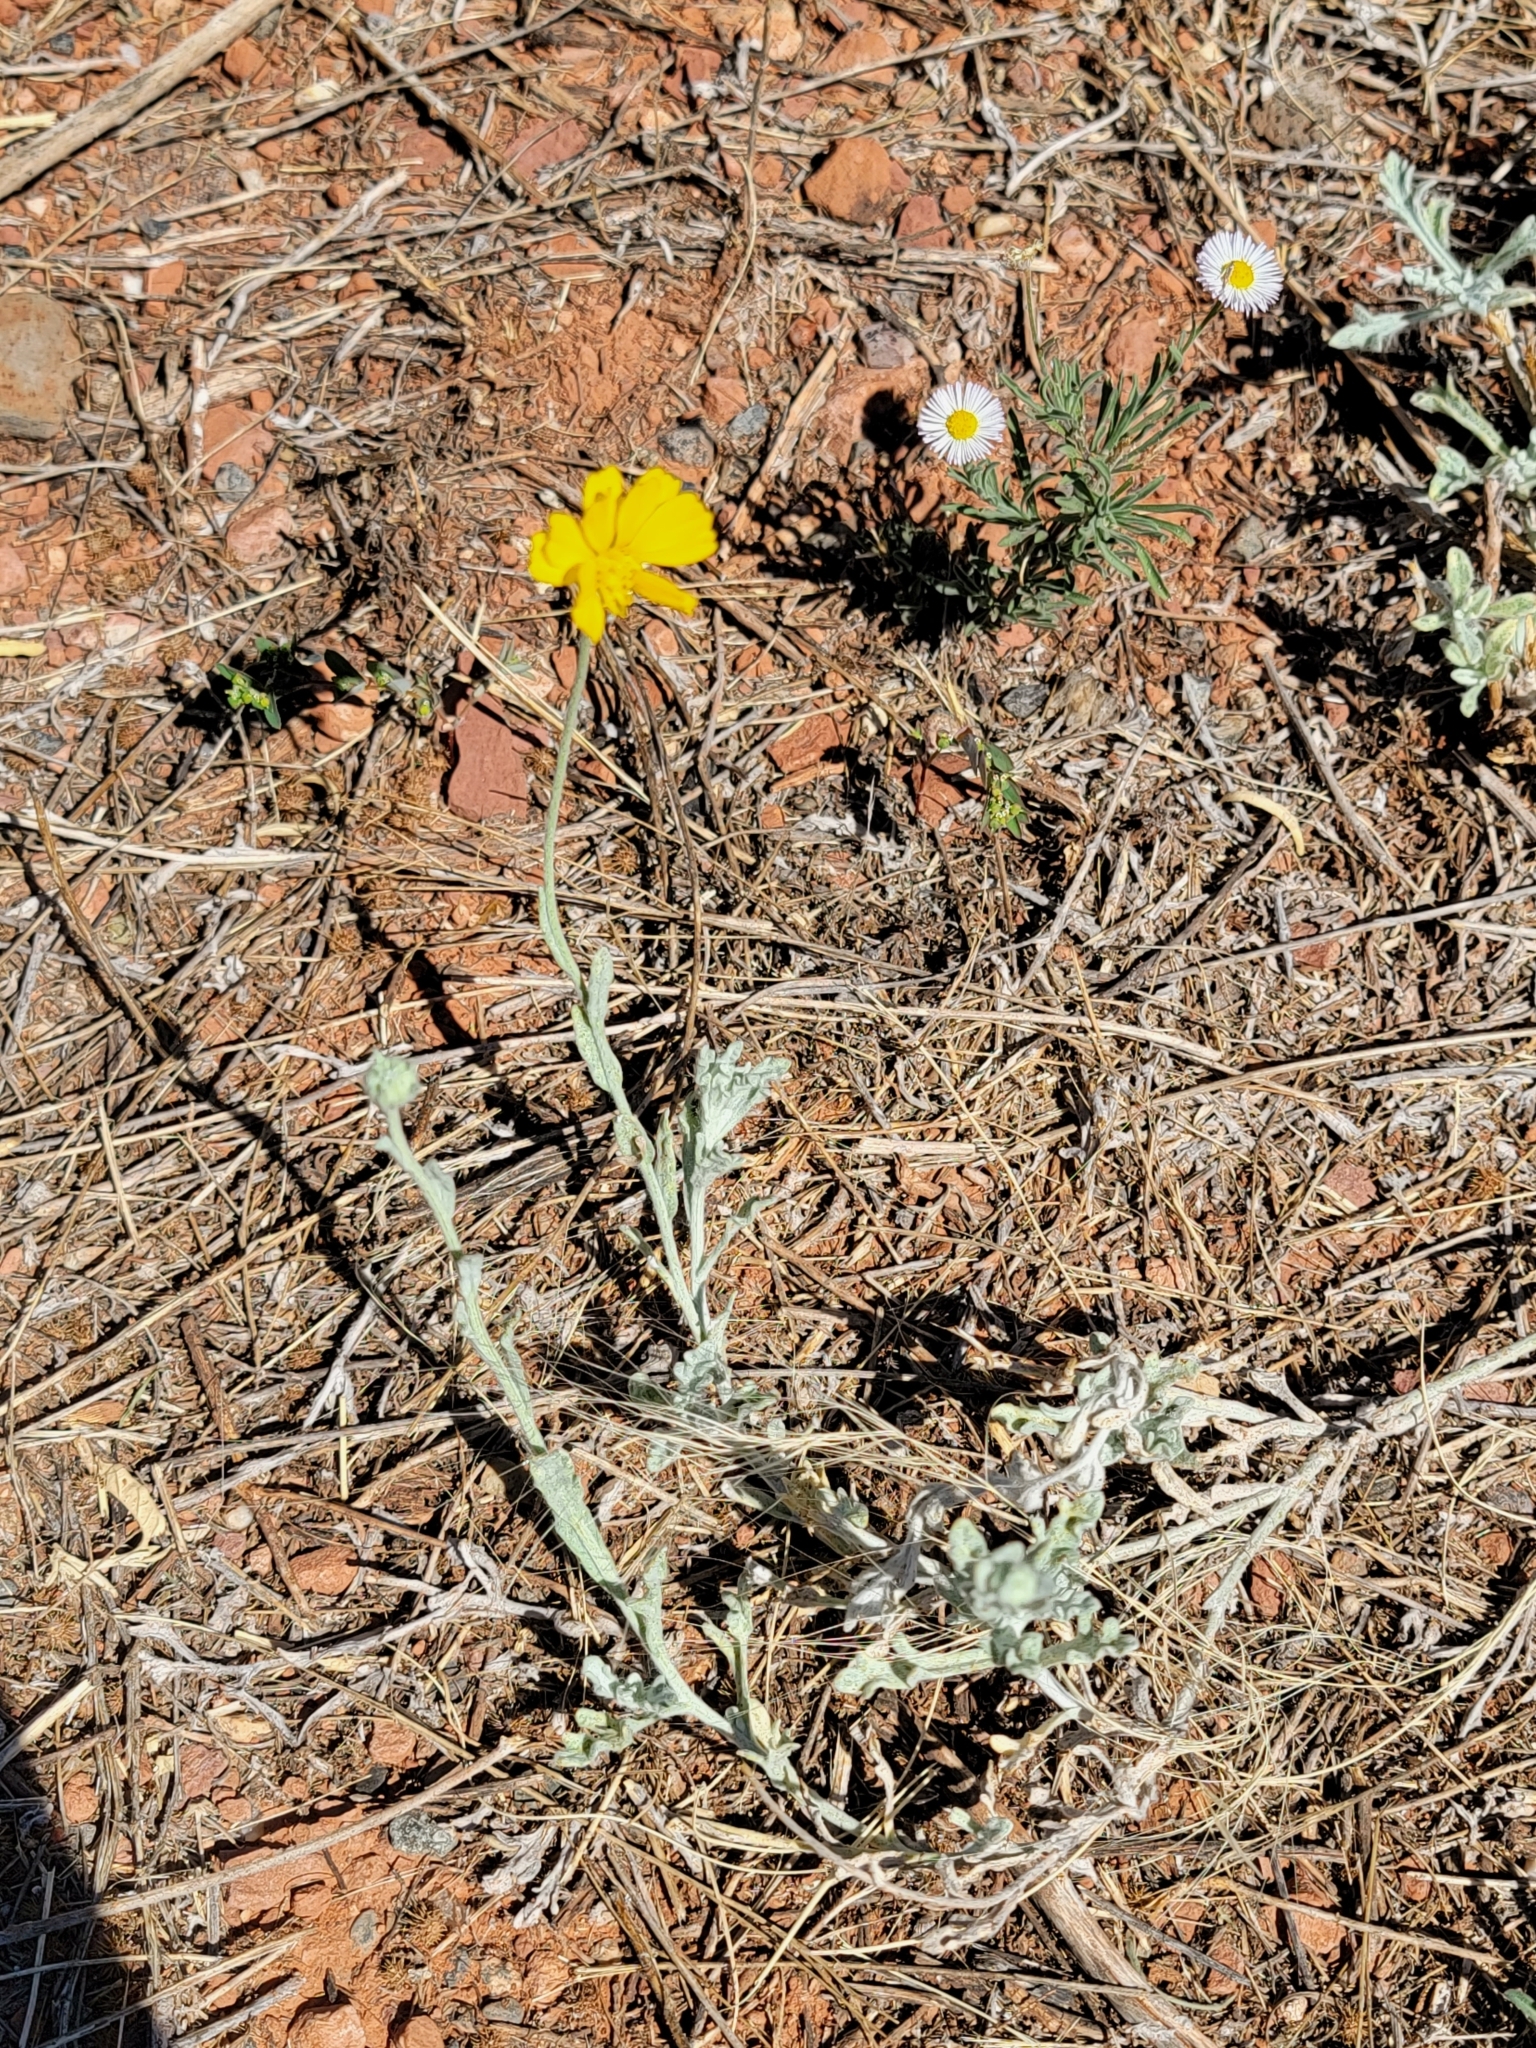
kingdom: Plantae
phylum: Tracheophyta
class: Magnoliopsida
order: Asterales
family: Asteraceae
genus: Baileya
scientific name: Baileya multiradiata
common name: Desert-marigold
